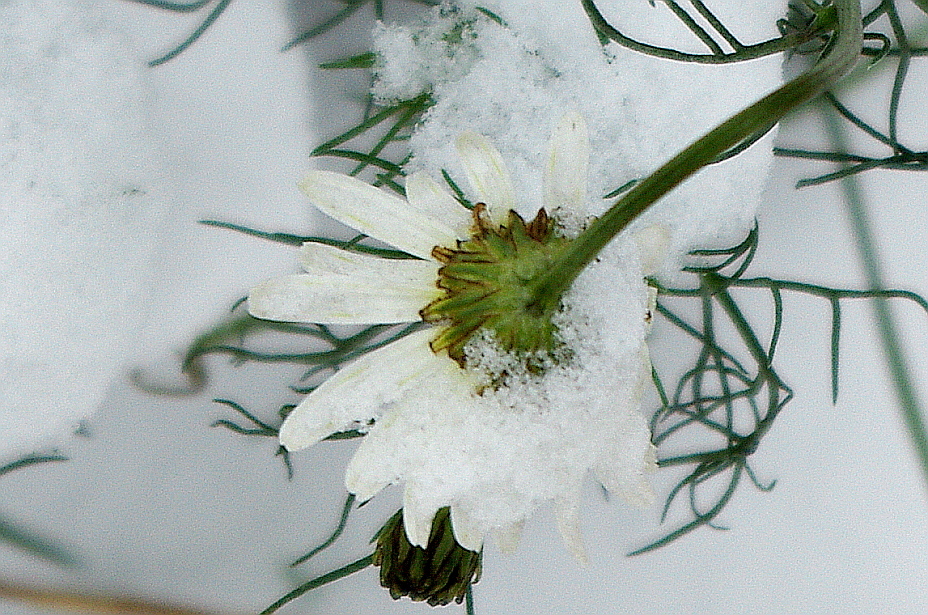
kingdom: Plantae
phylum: Tracheophyta
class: Magnoliopsida
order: Asterales
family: Asteraceae
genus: Tripleurospermum
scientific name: Tripleurospermum inodorum
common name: Scentless mayweed
